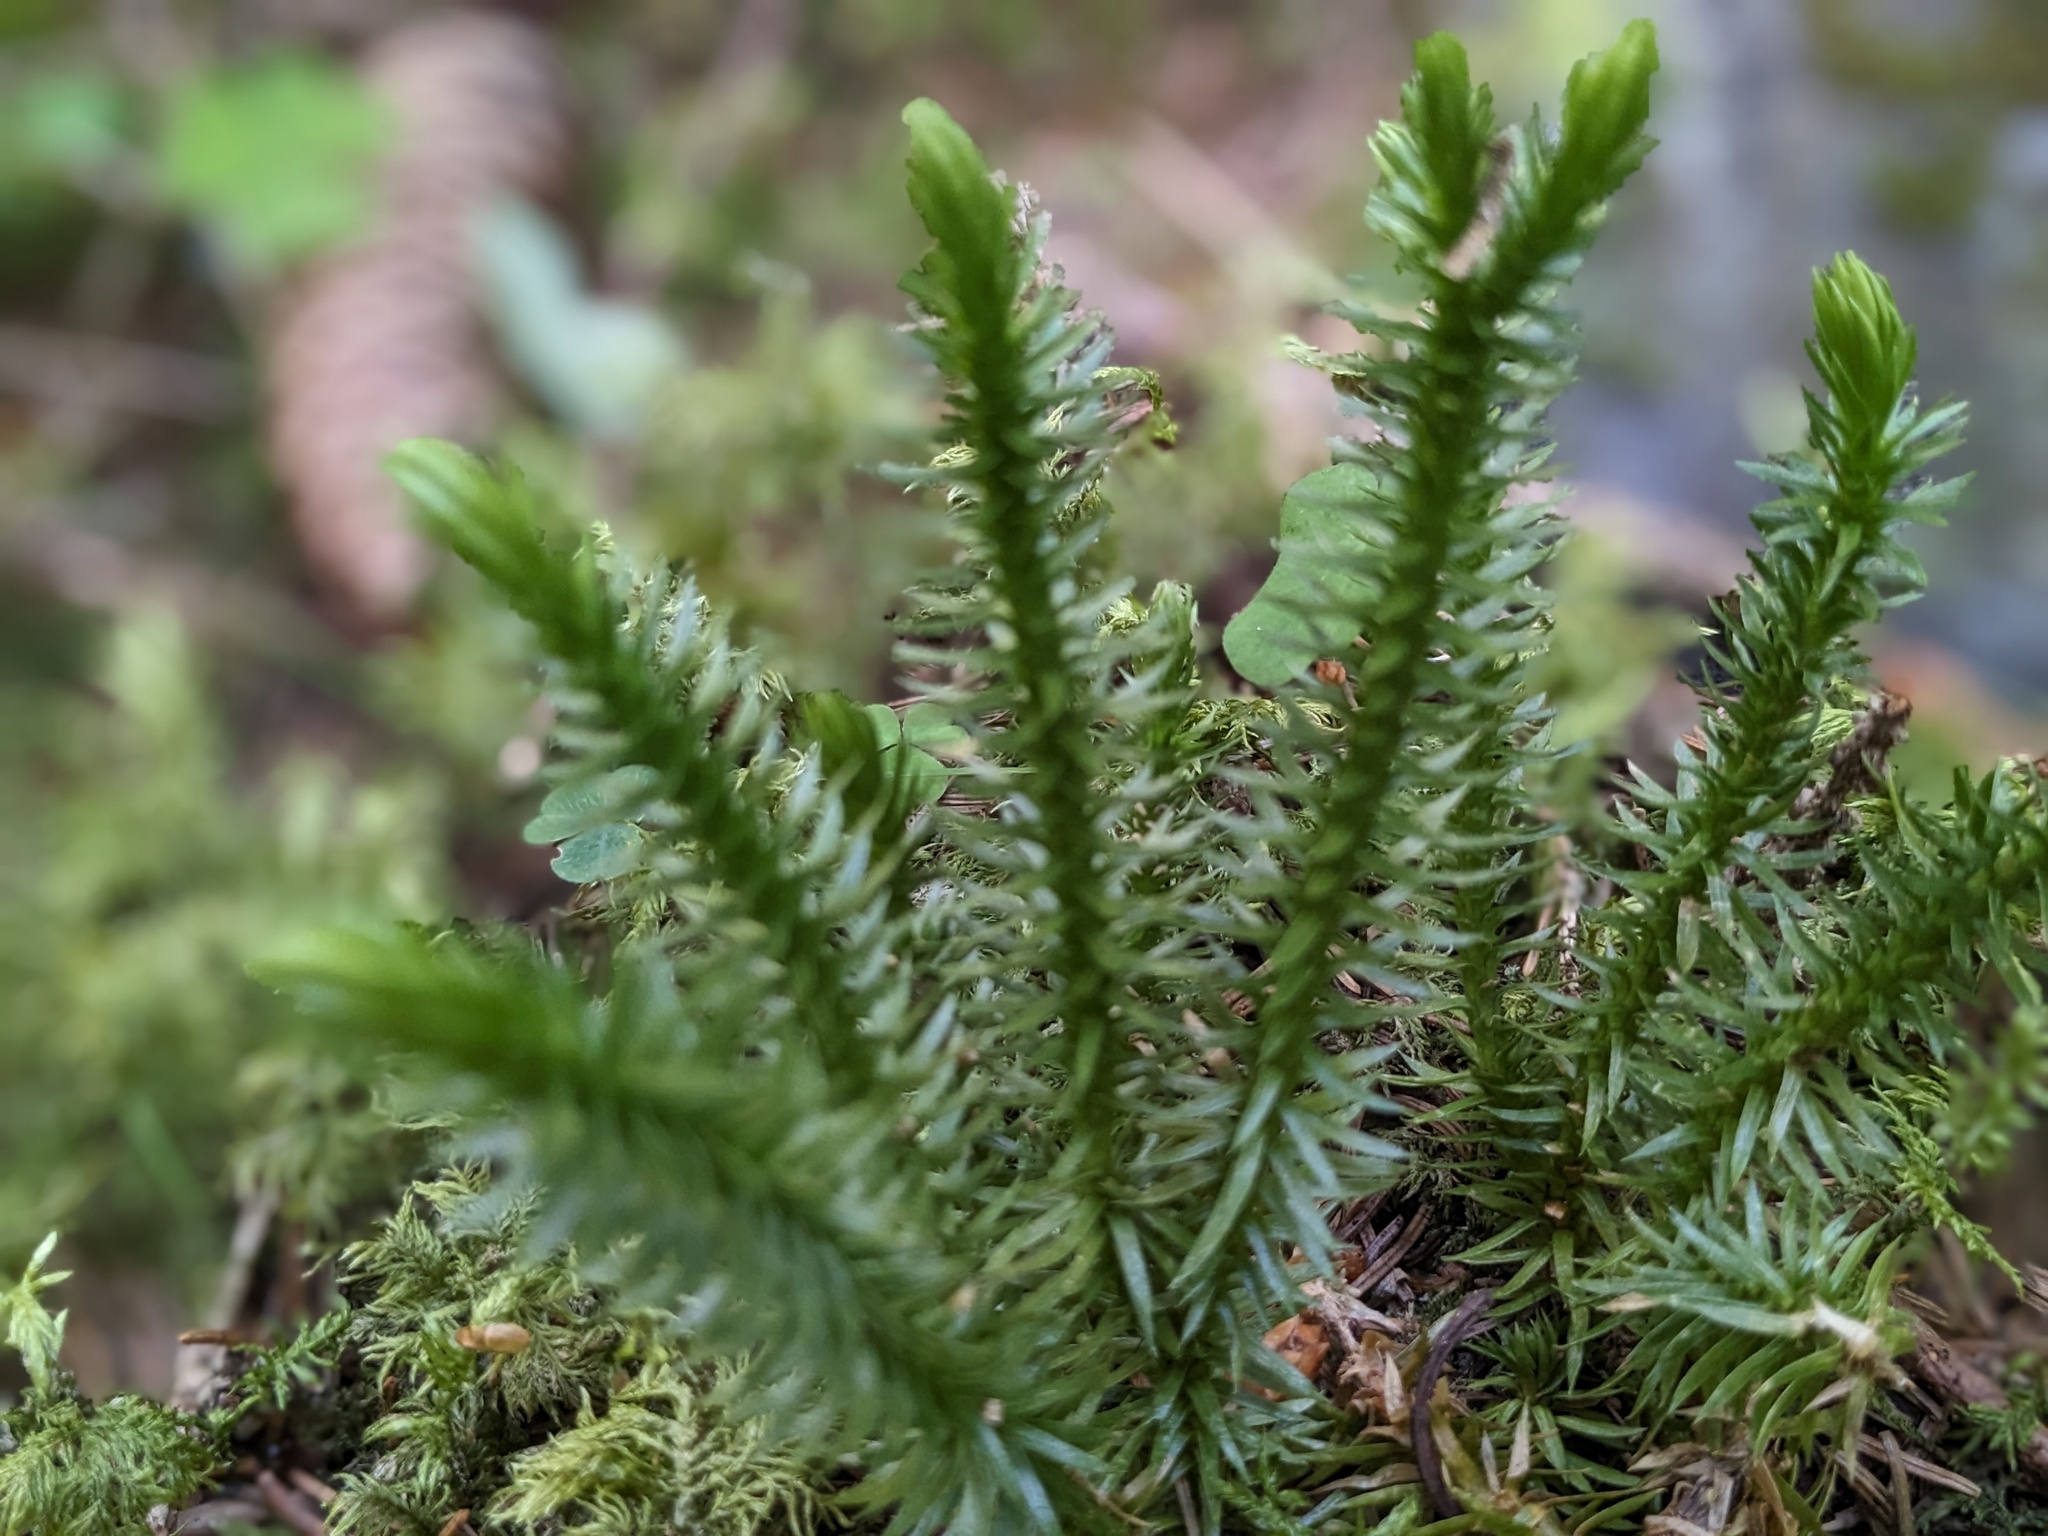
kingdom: Plantae
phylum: Tracheophyta
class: Lycopodiopsida
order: Lycopodiales
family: Lycopodiaceae
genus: Huperzia
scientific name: Huperzia selago
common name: Northern firmoss
